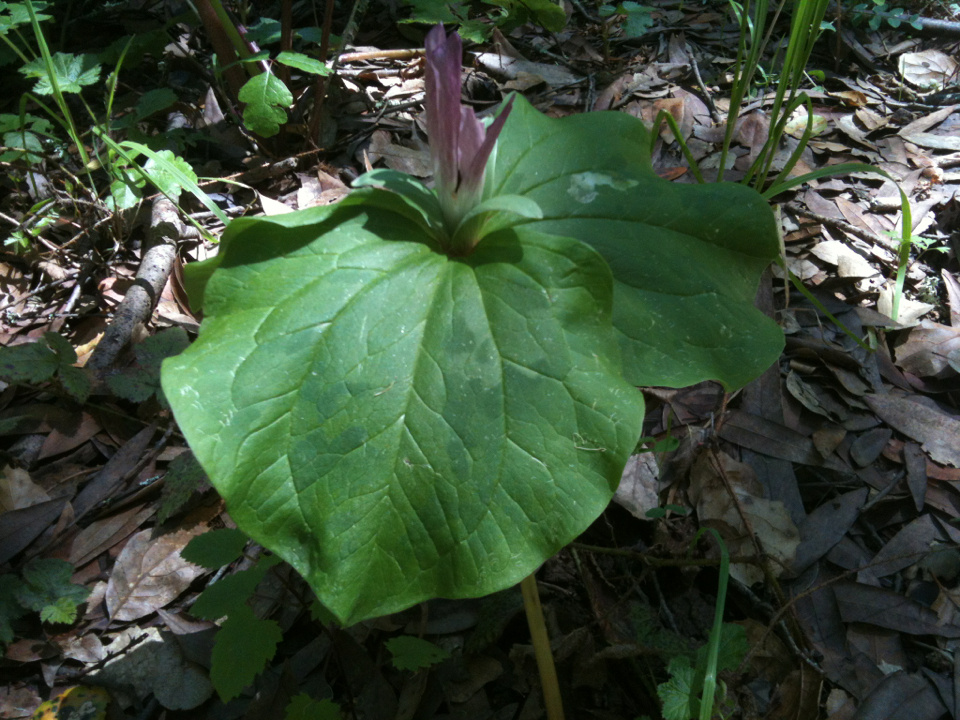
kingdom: Plantae
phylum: Tracheophyta
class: Liliopsida
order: Liliales
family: Melanthiaceae
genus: Trillium
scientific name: Trillium chloropetalum
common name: Giant trillium
